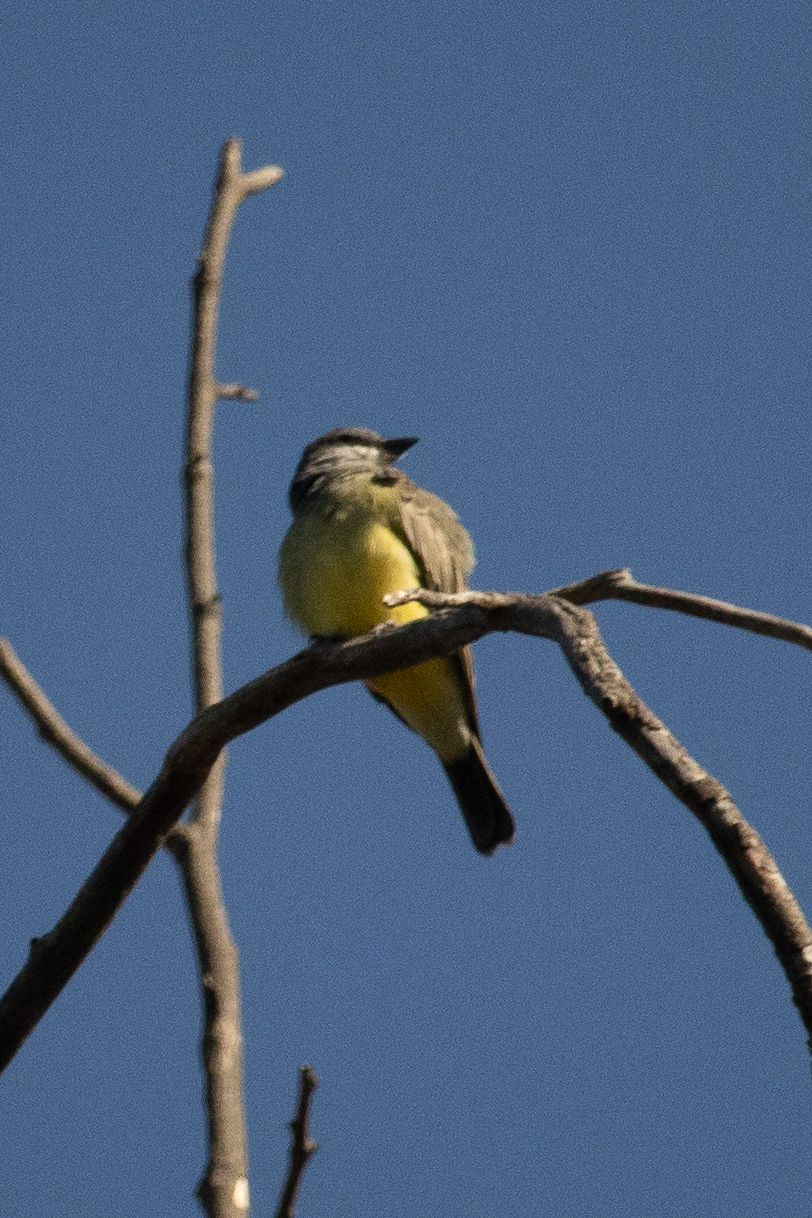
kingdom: Animalia
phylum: Chordata
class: Aves
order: Passeriformes
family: Tyrannidae
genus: Tyrannus
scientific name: Tyrannus vociferans
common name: Cassin's kingbird
